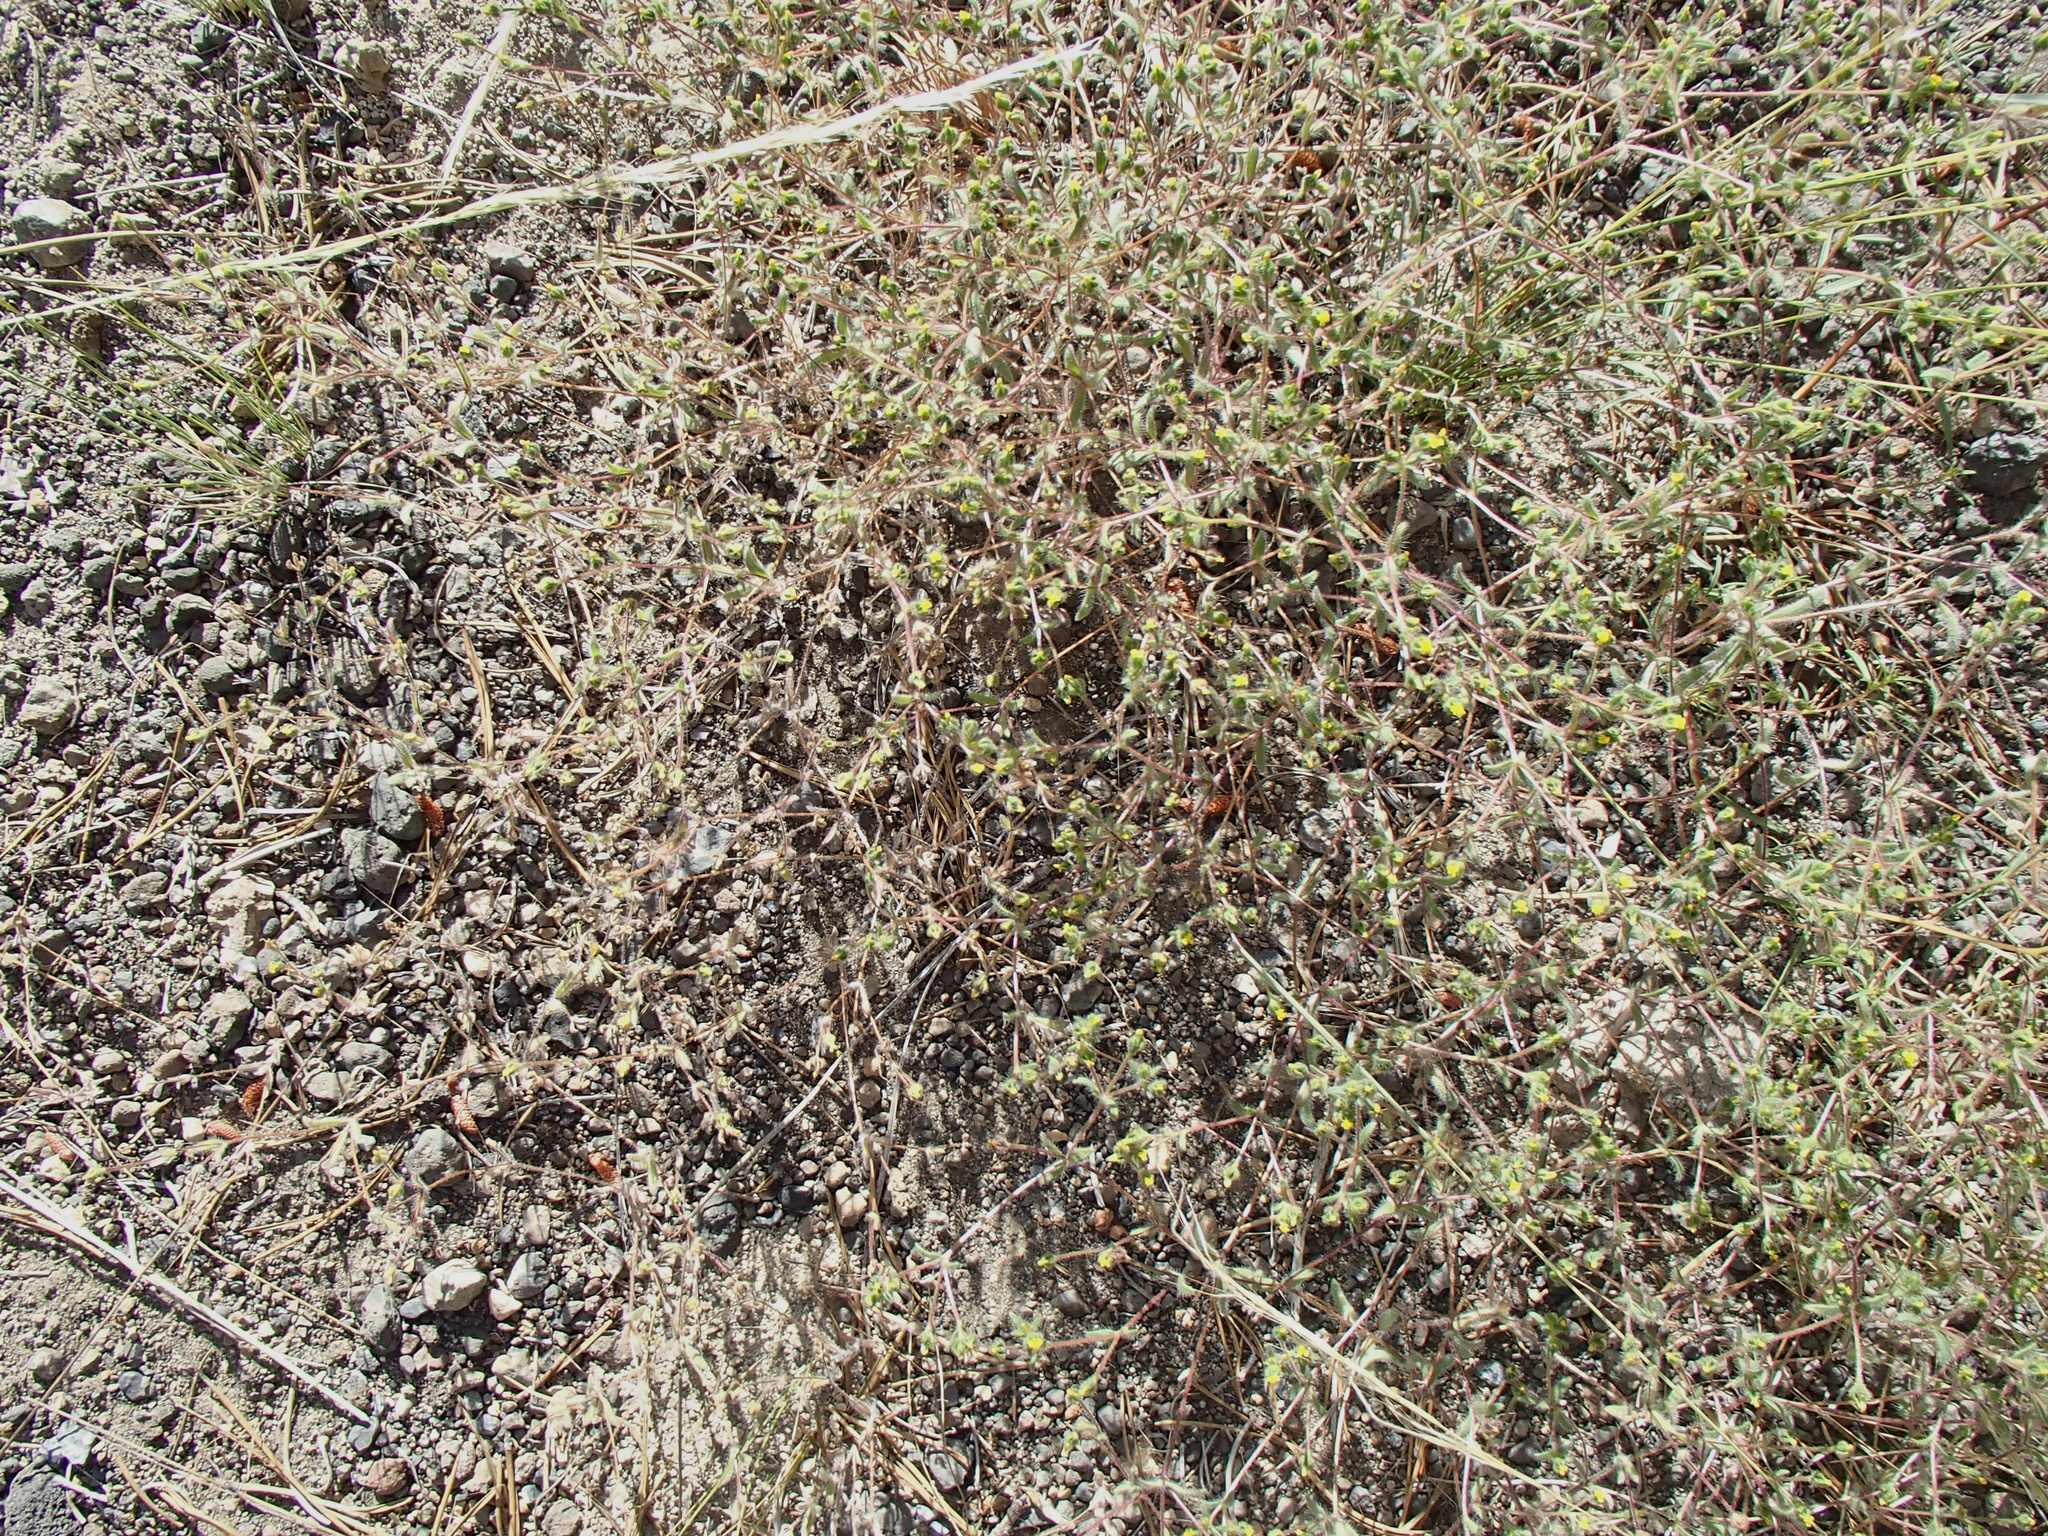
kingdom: Plantae
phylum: Tracheophyta
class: Magnoliopsida
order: Asterales
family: Asteraceae
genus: Hemizonella
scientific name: Hemizonella minima
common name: Opposite-leaved tarweed
